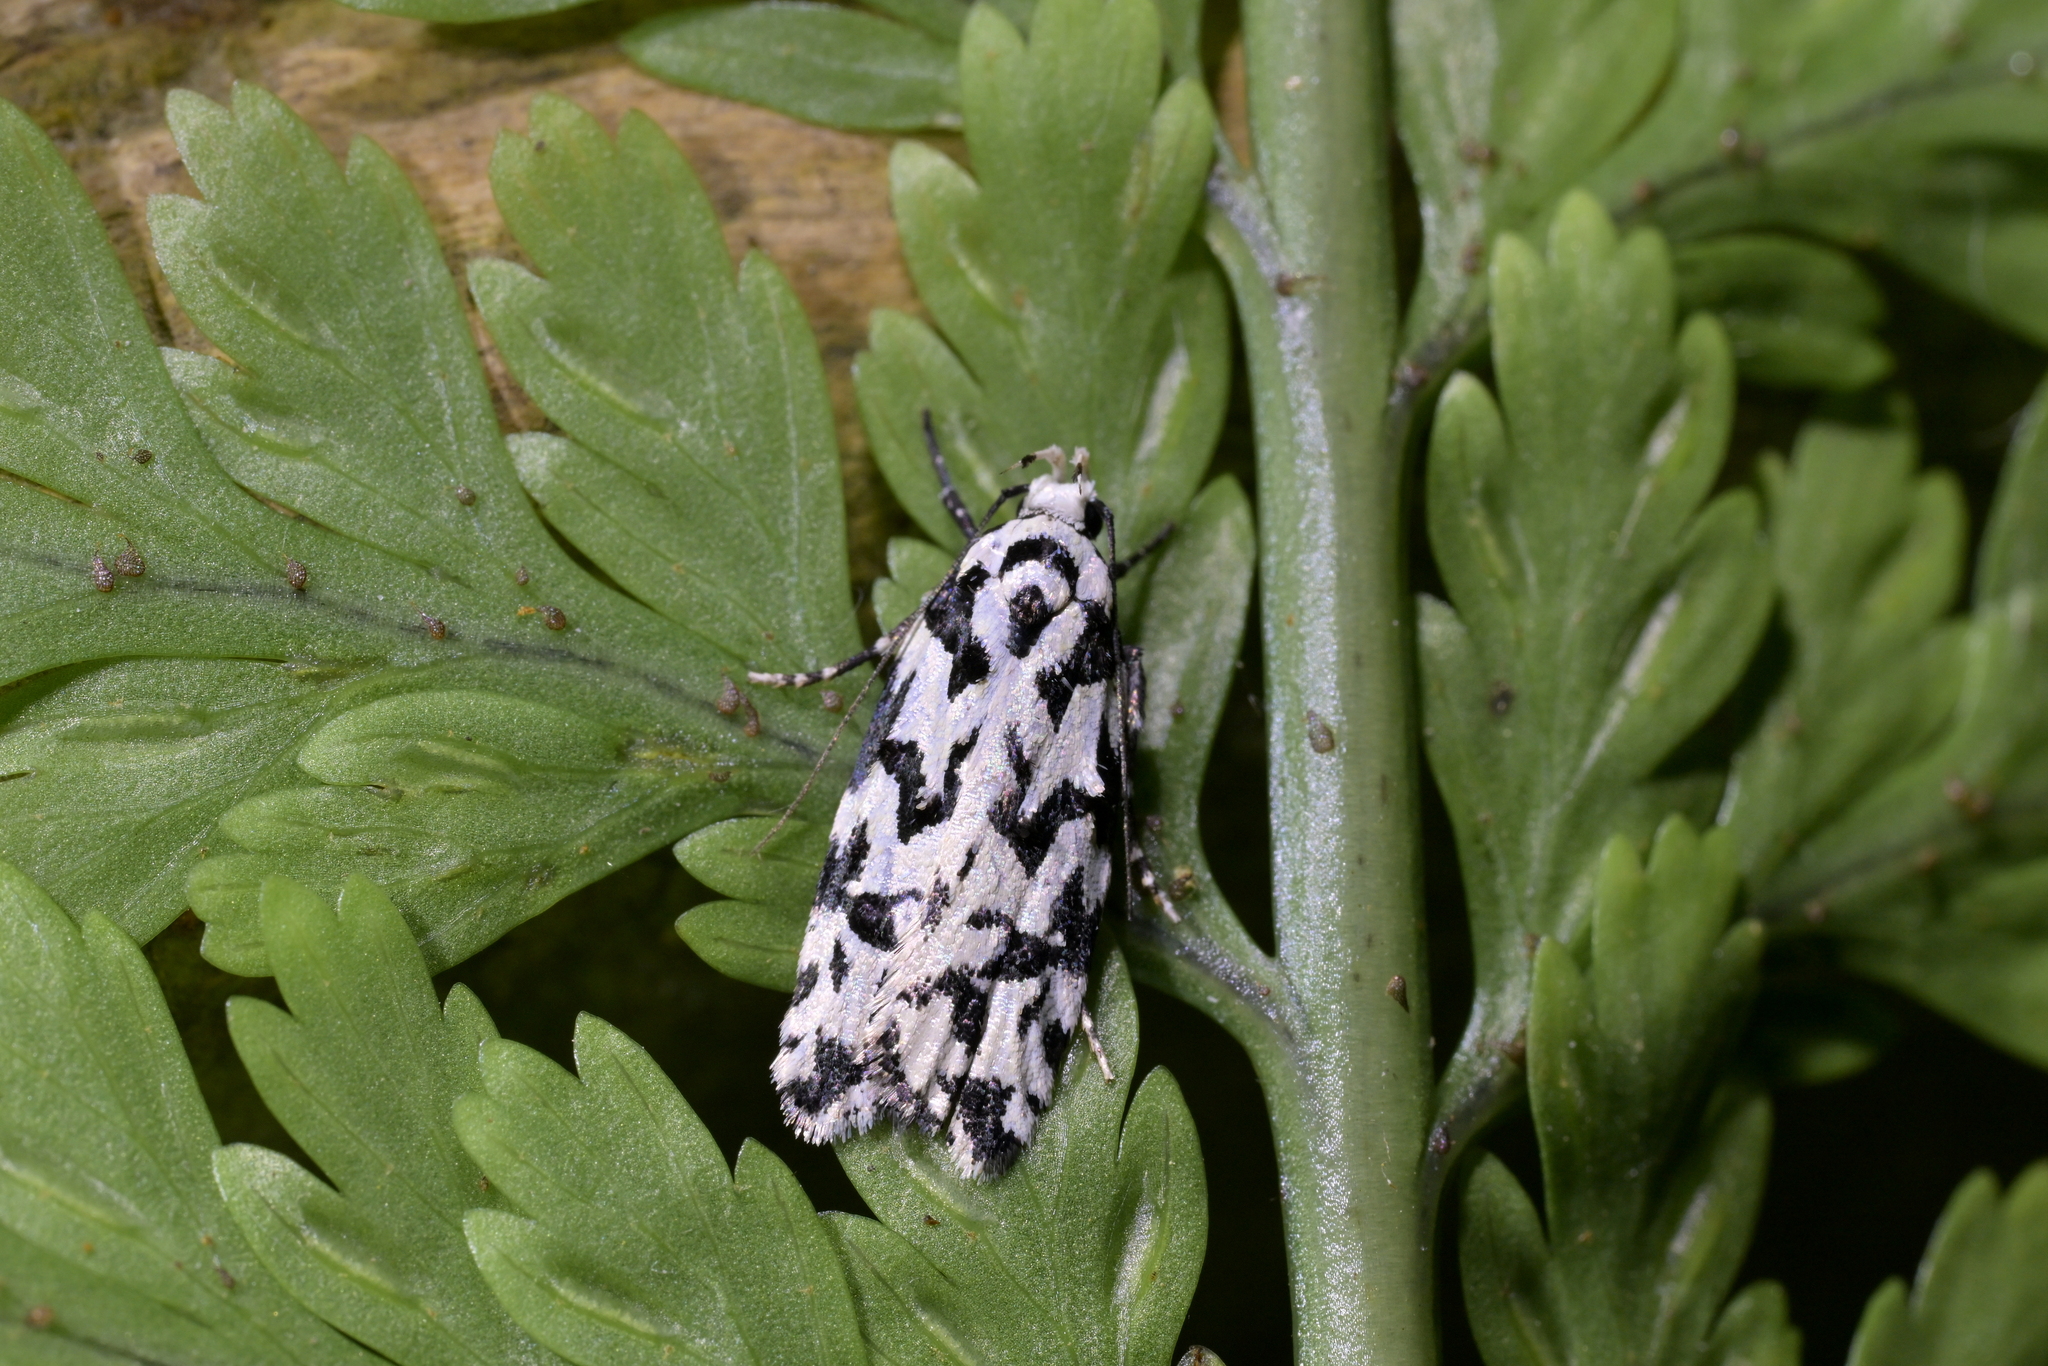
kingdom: Animalia
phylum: Arthropoda
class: Insecta
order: Lepidoptera
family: Oecophoridae
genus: Izatha
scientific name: Izatha
